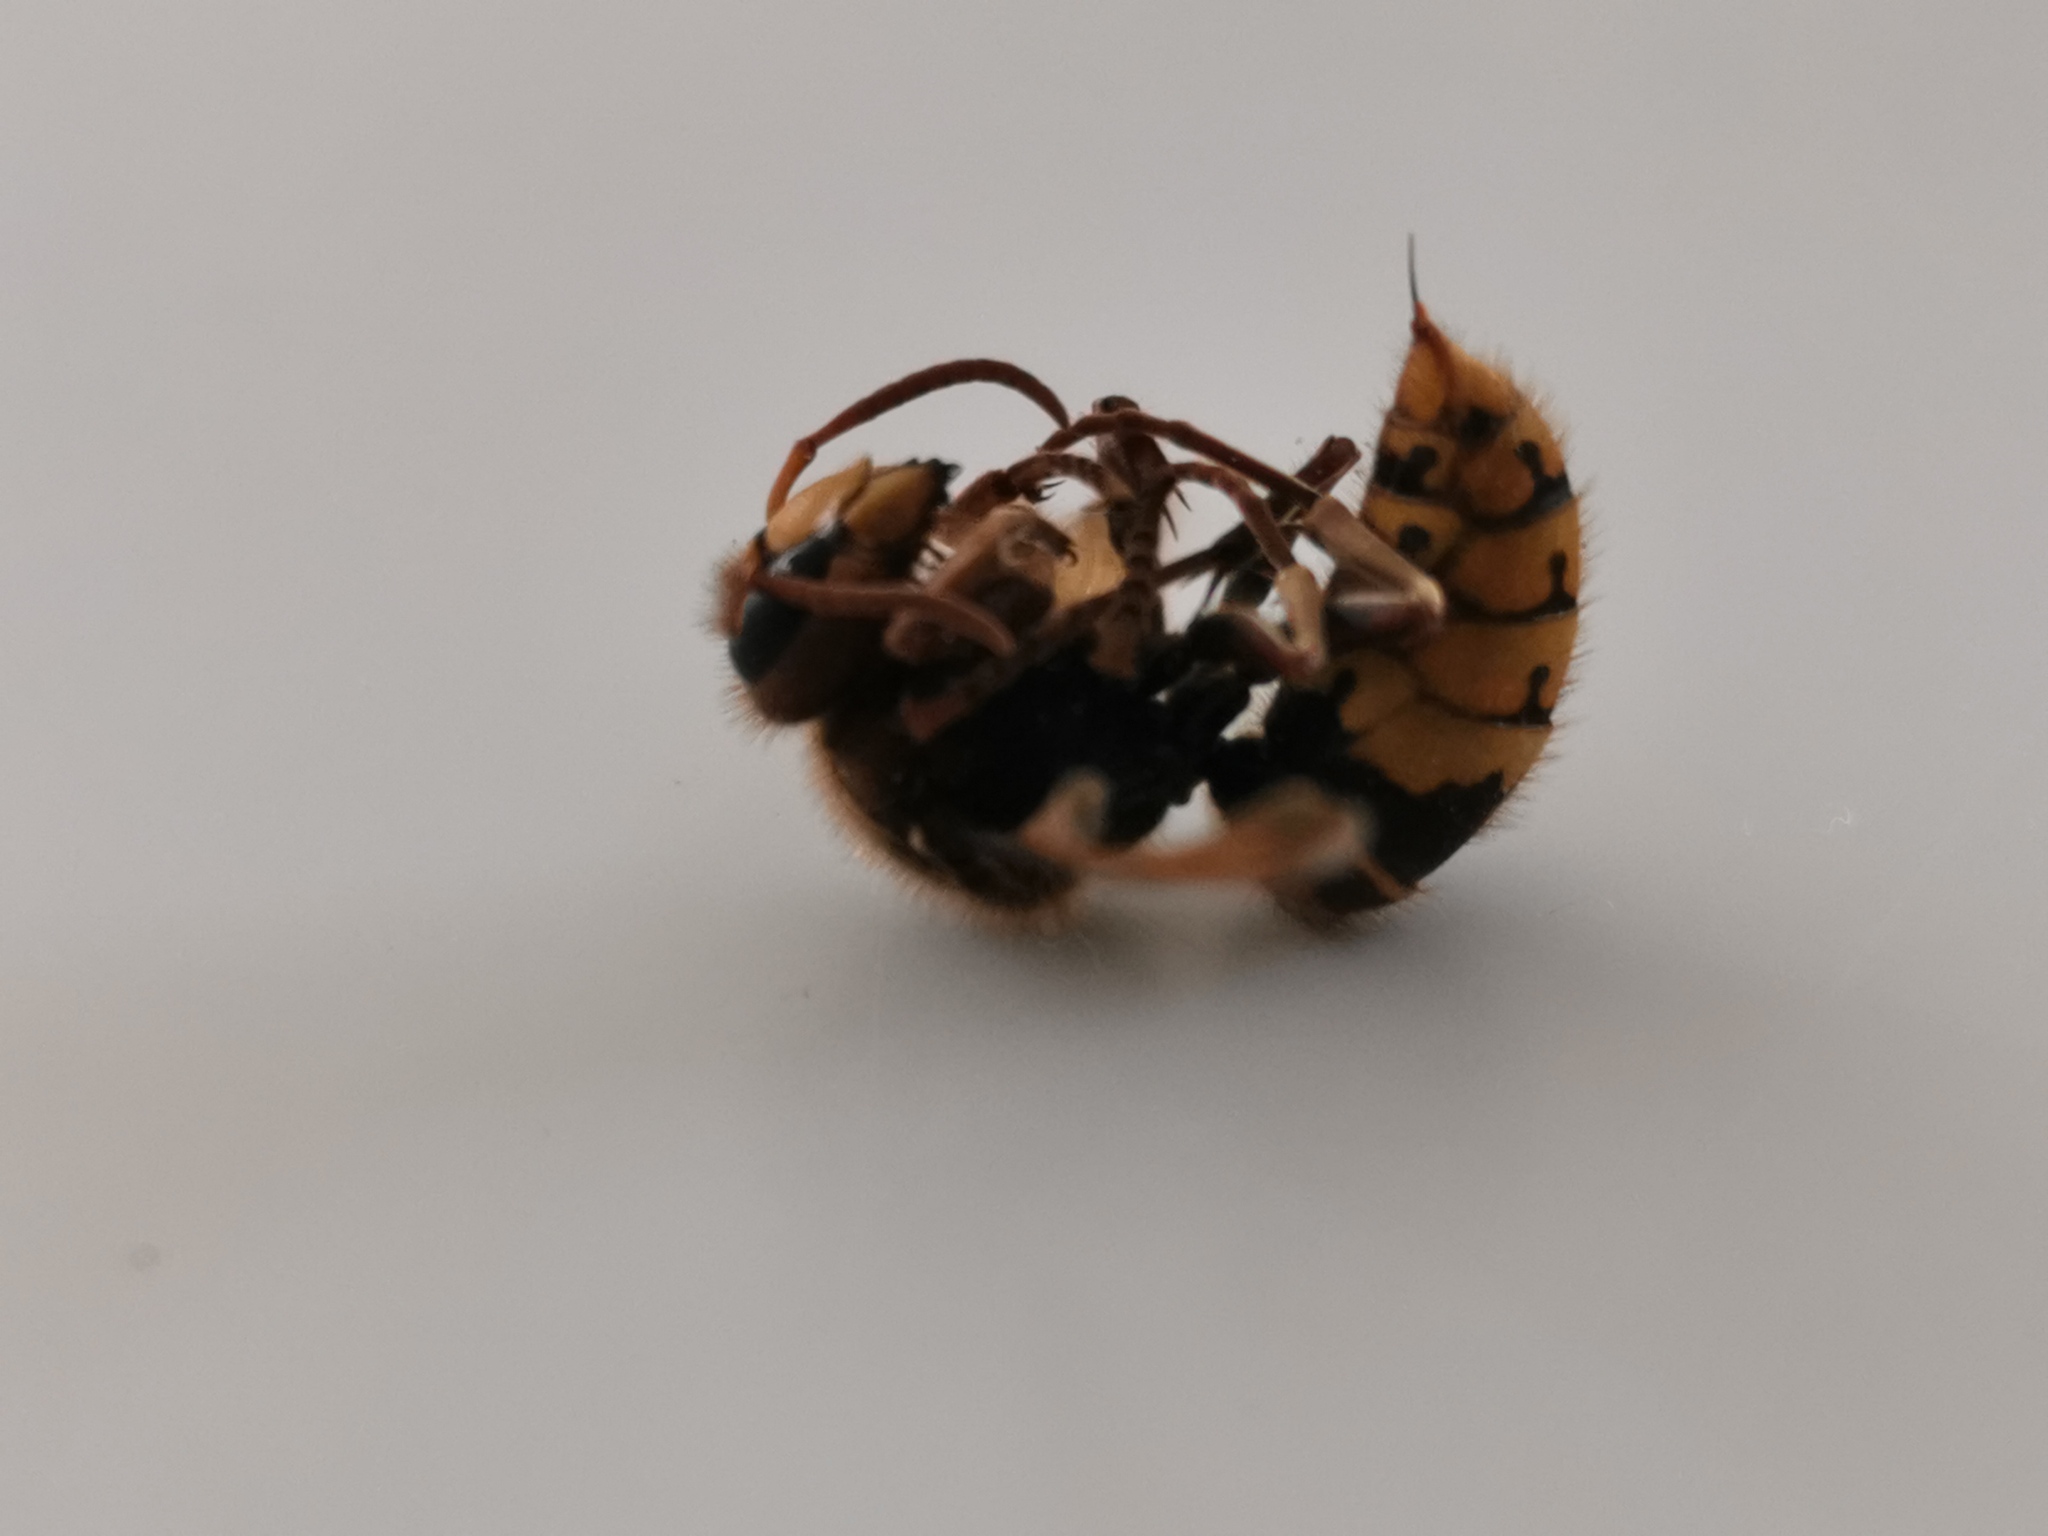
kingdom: Animalia
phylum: Arthropoda
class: Insecta
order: Hymenoptera
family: Vespidae
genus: Vespa
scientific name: Vespa crabro
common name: Hornet
